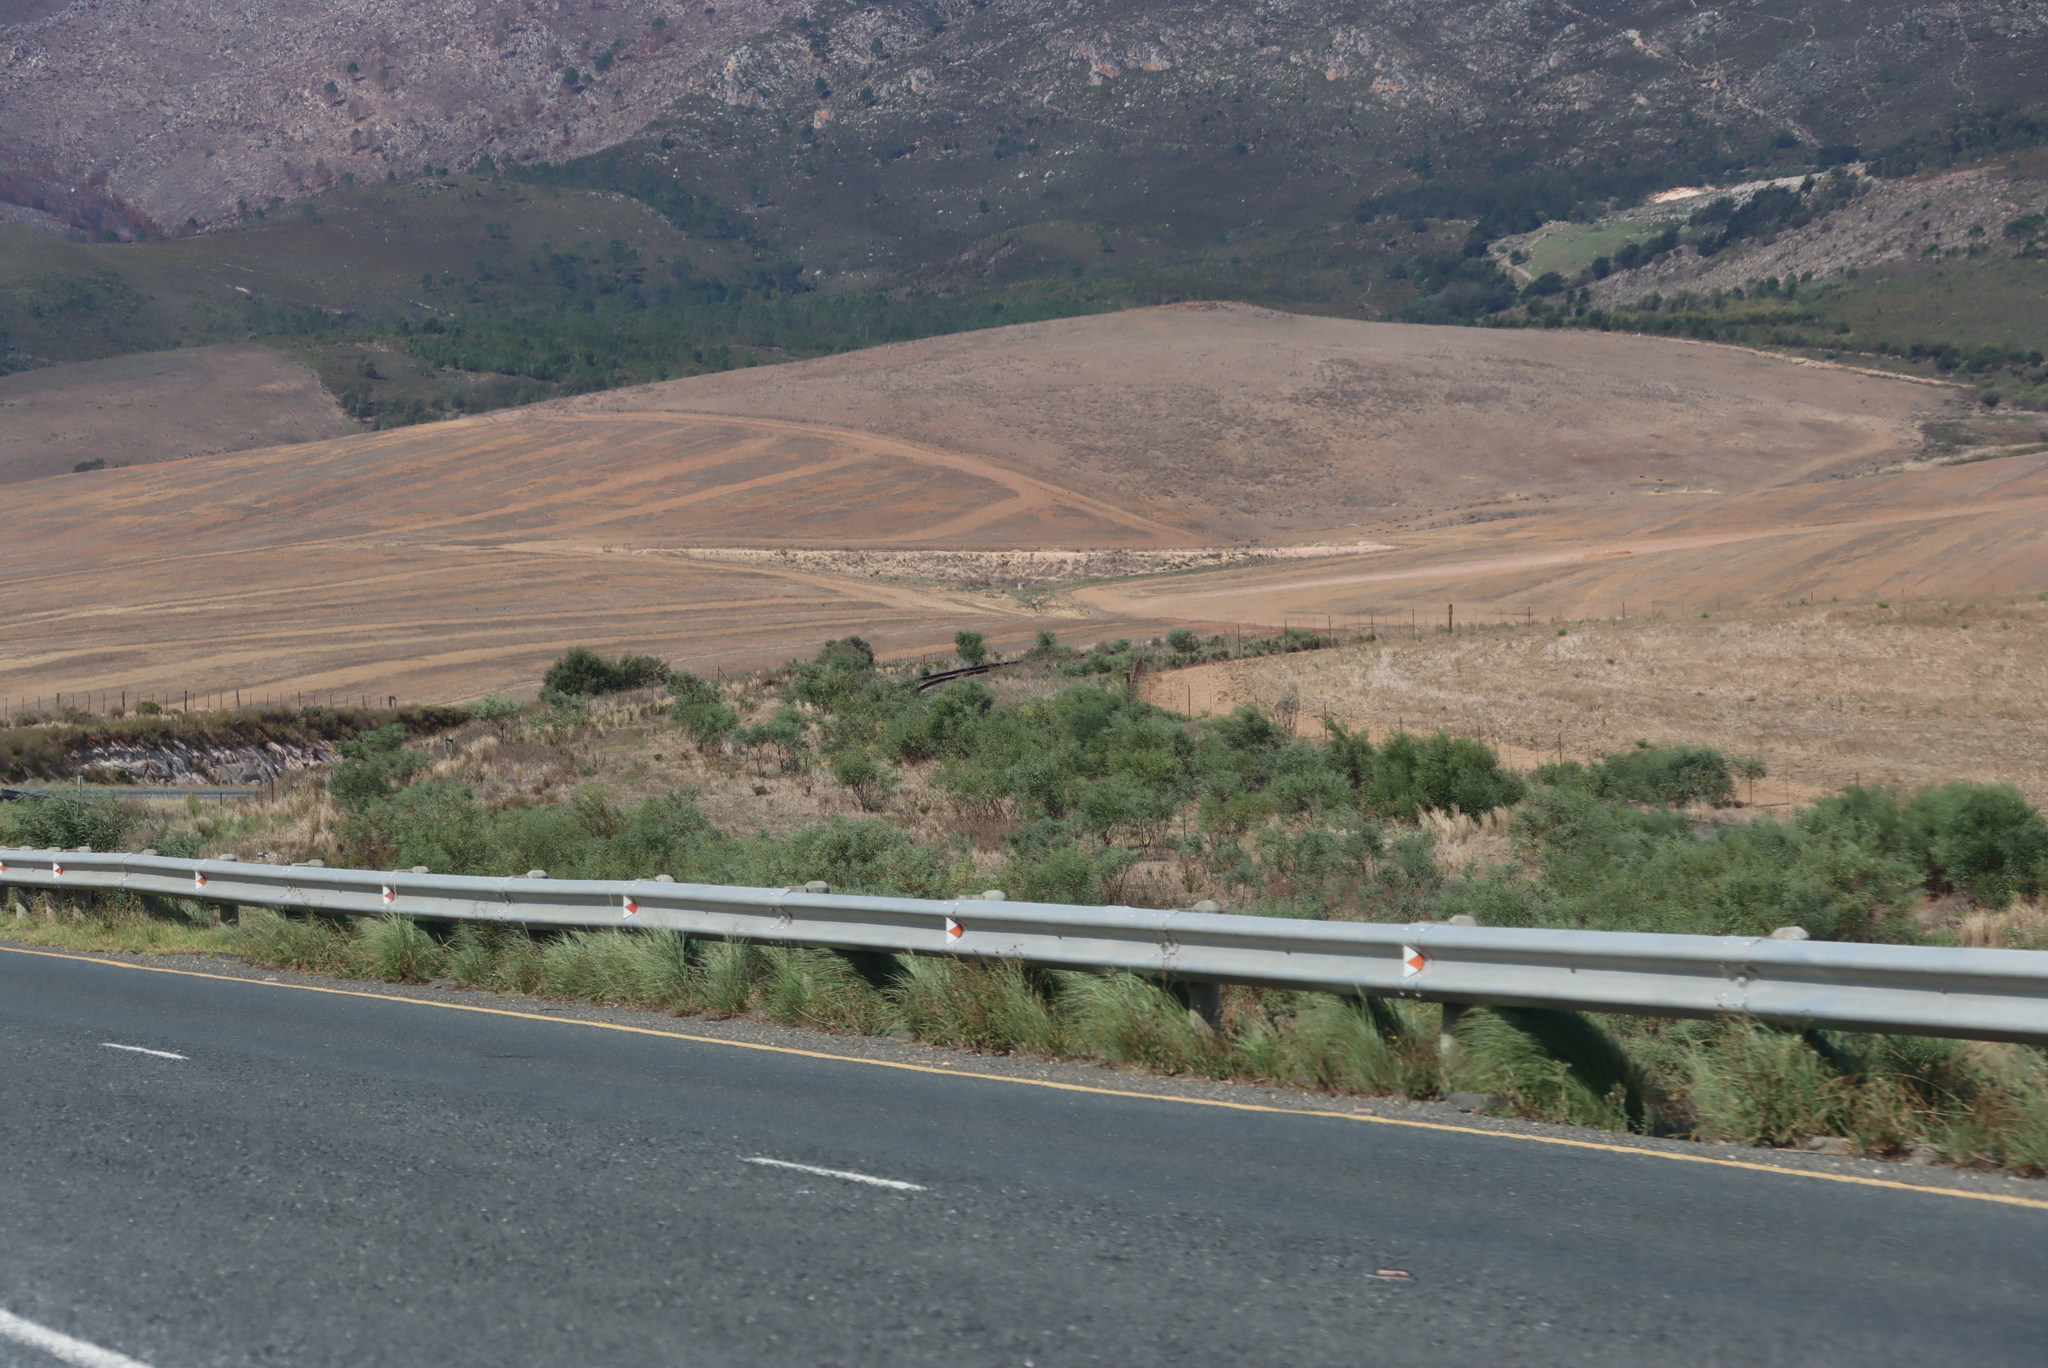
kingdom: Plantae
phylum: Tracheophyta
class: Magnoliopsida
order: Fabales
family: Fabaceae
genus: Acacia
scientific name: Acacia saligna
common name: Orange wattle
